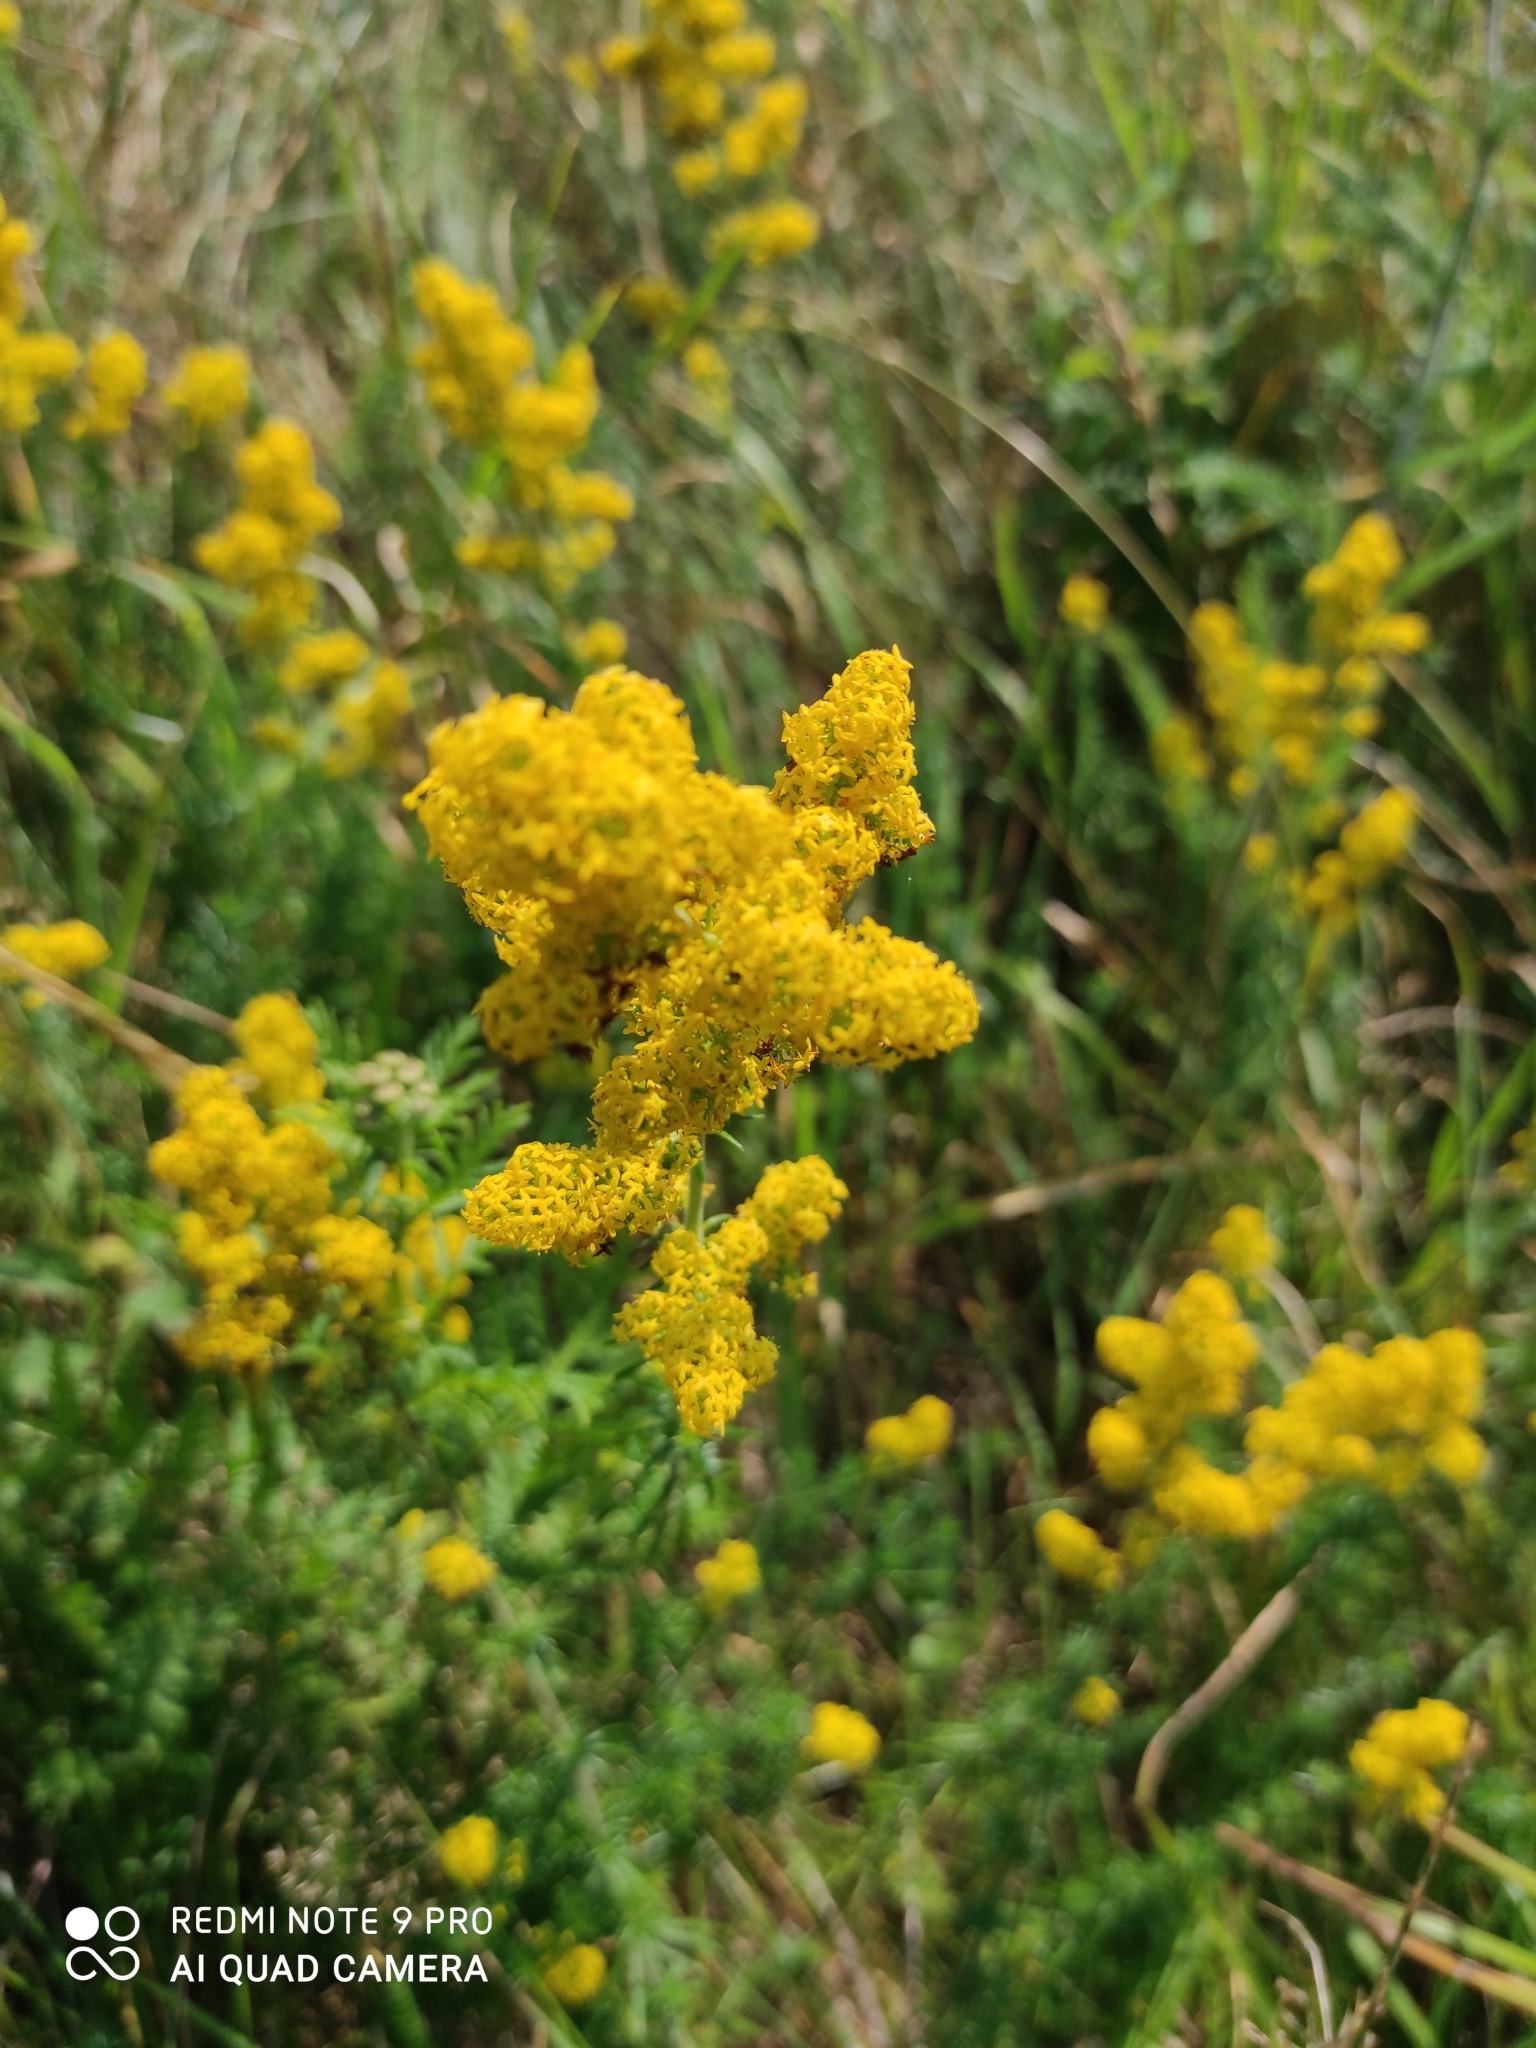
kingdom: Plantae
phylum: Tracheophyta
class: Magnoliopsida
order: Gentianales
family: Rubiaceae
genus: Galium
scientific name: Galium verum
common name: Lady's bedstraw
